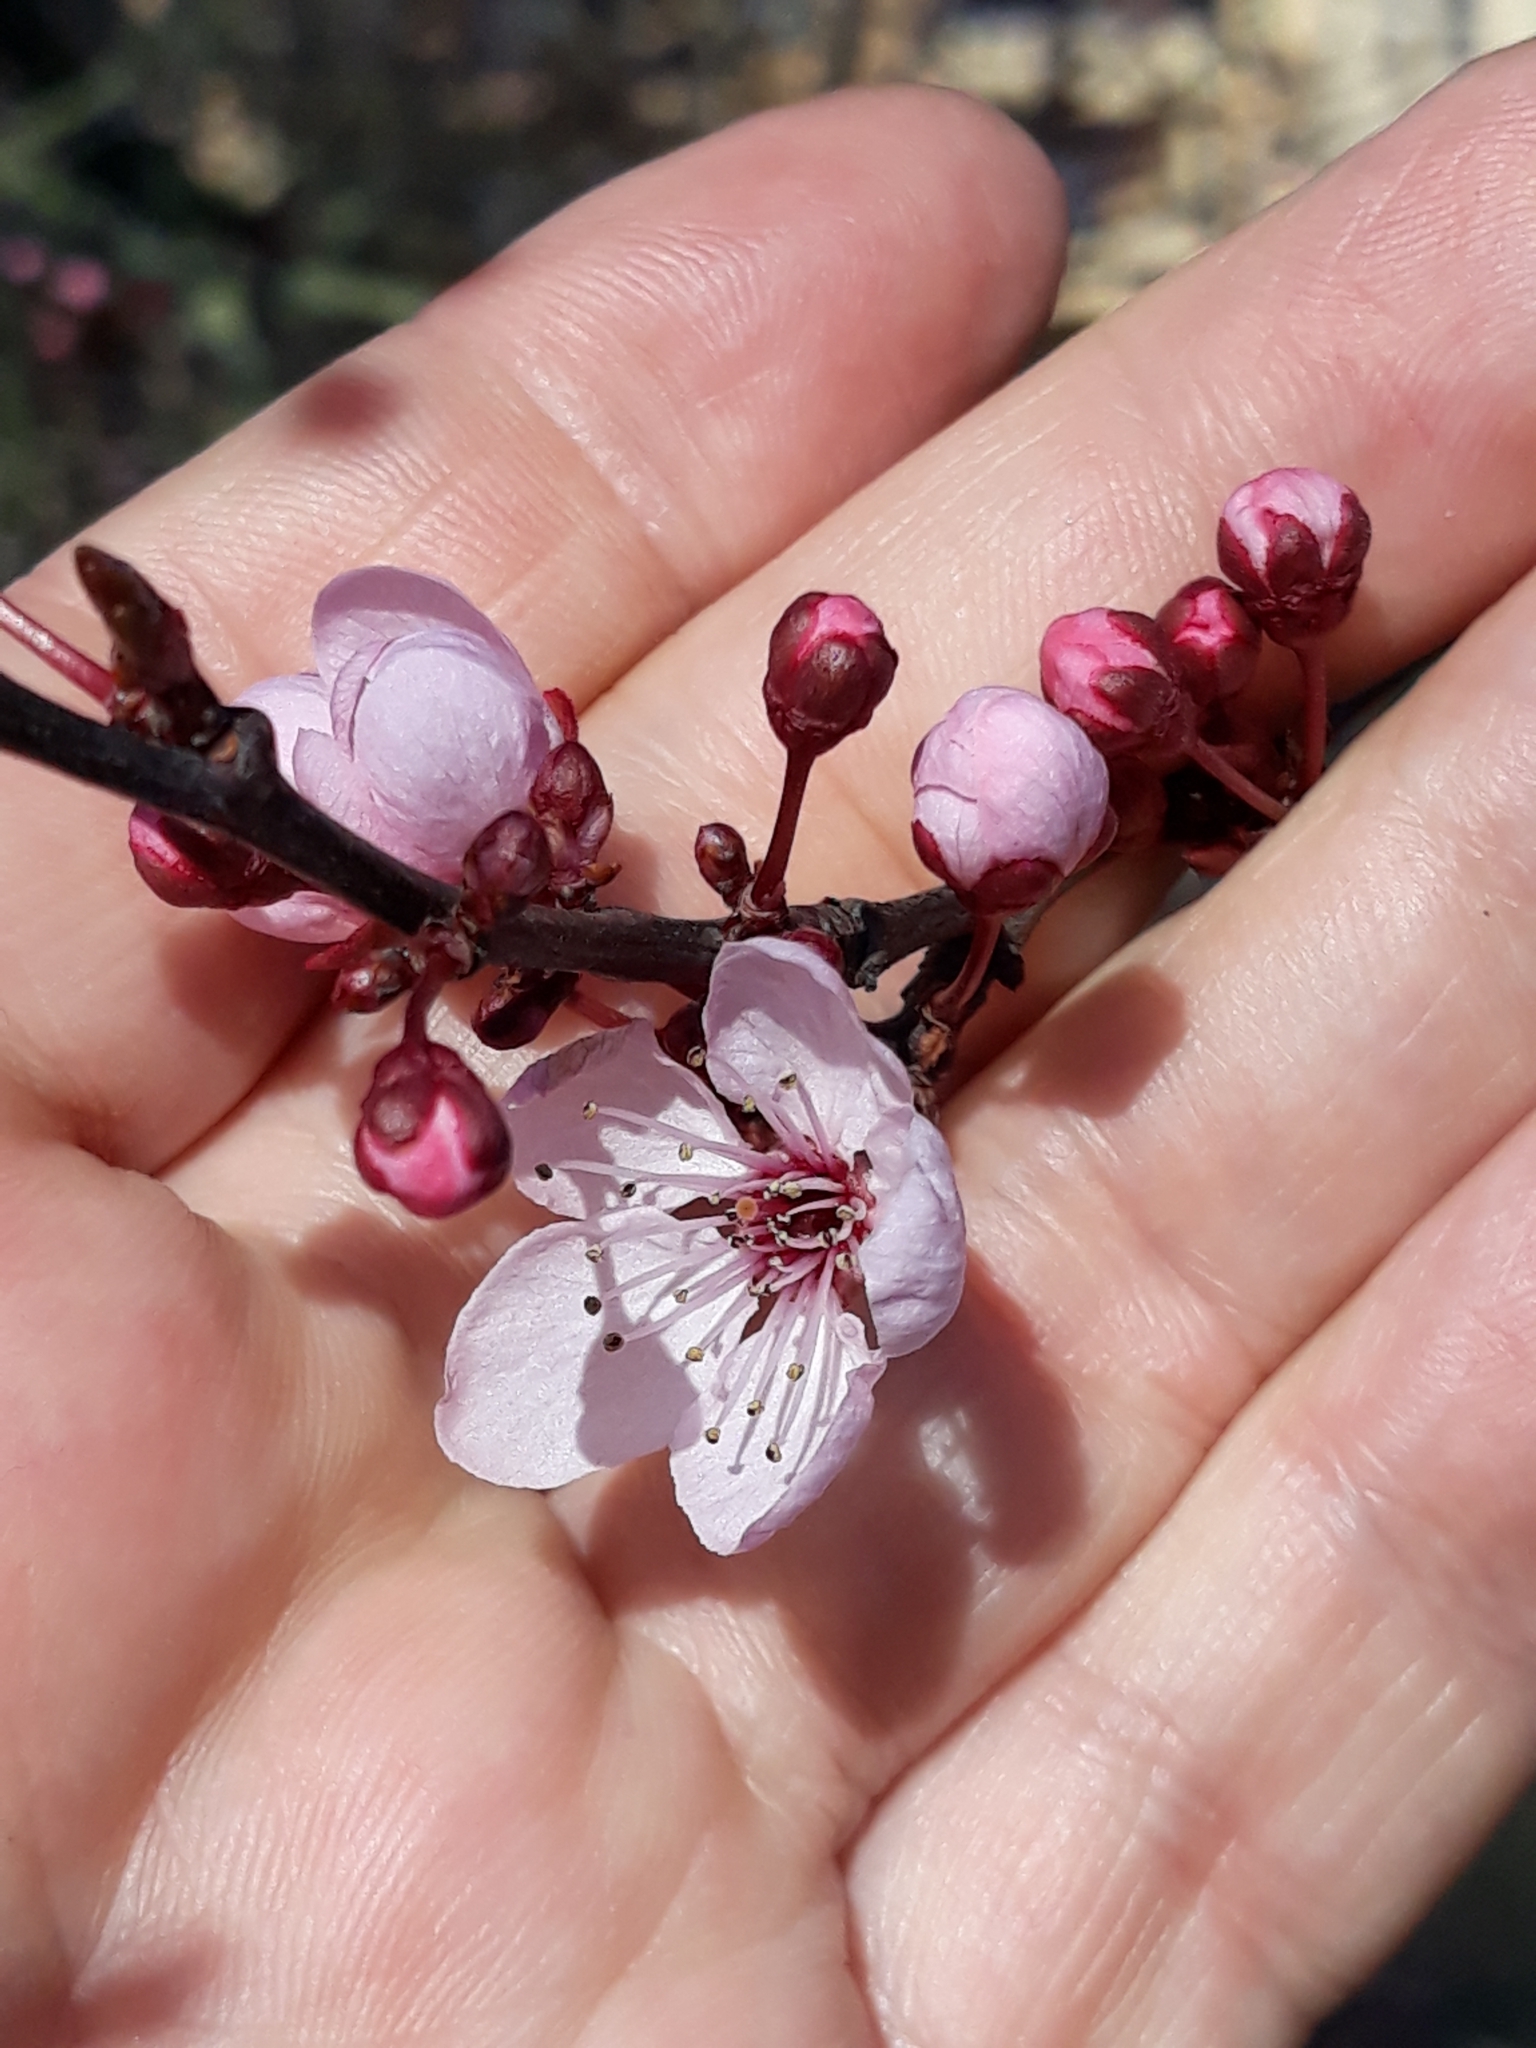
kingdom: Plantae
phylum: Tracheophyta
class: Magnoliopsida
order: Rosales
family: Rosaceae
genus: Prunus
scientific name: Prunus cerasifera
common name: Cherry plum
